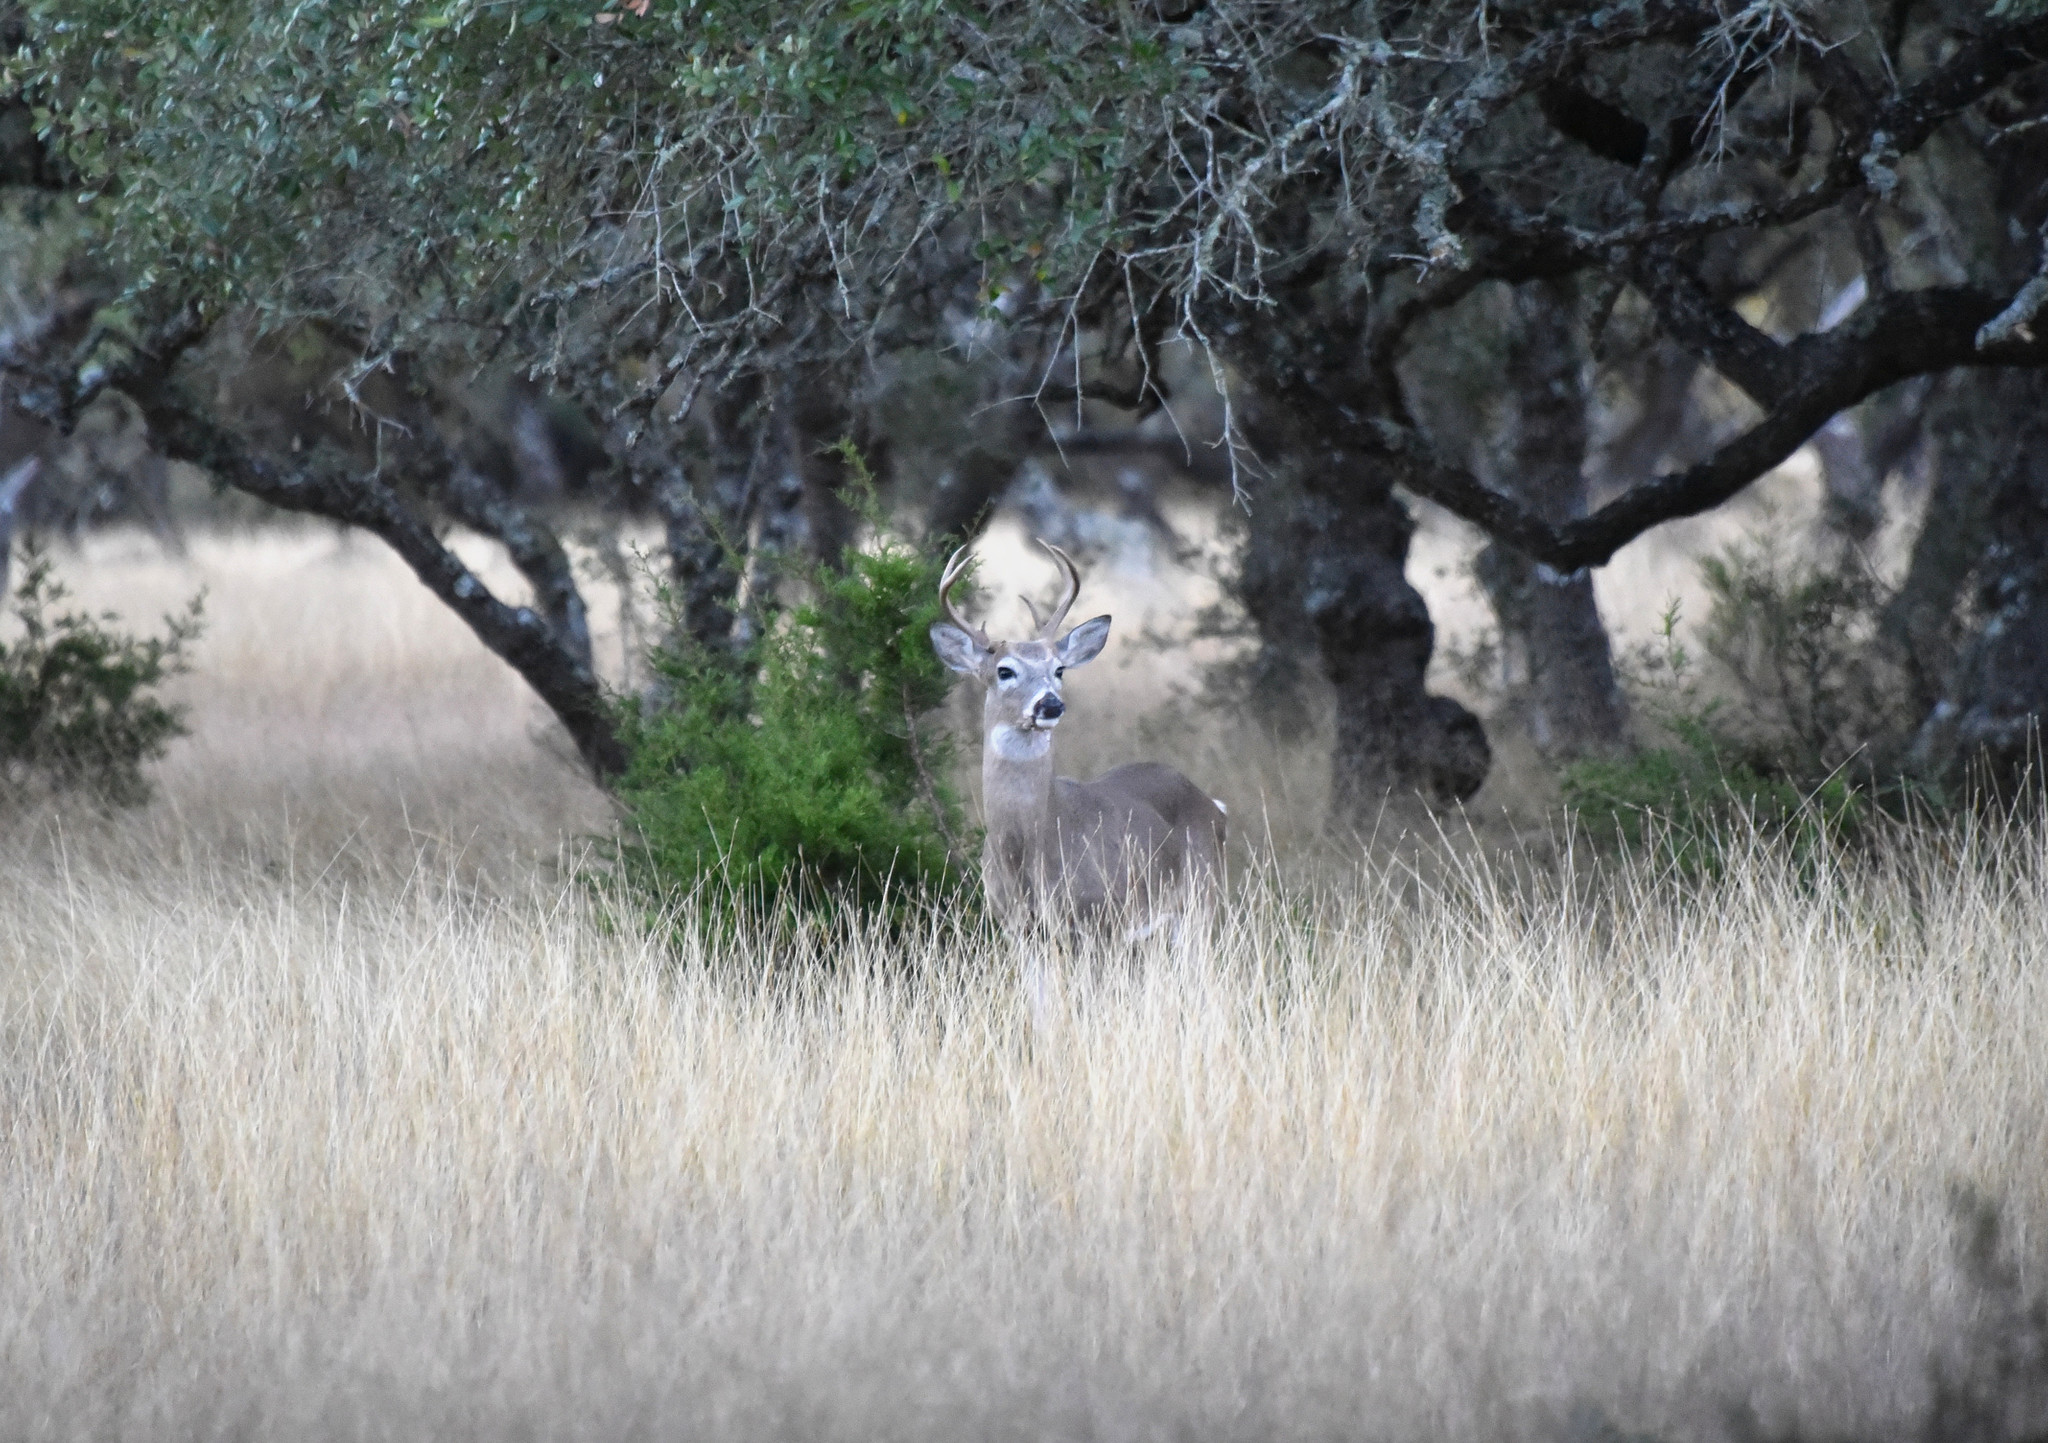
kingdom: Animalia
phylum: Chordata
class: Mammalia
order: Artiodactyla
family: Cervidae
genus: Odocoileus
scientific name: Odocoileus virginianus
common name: White-tailed deer
